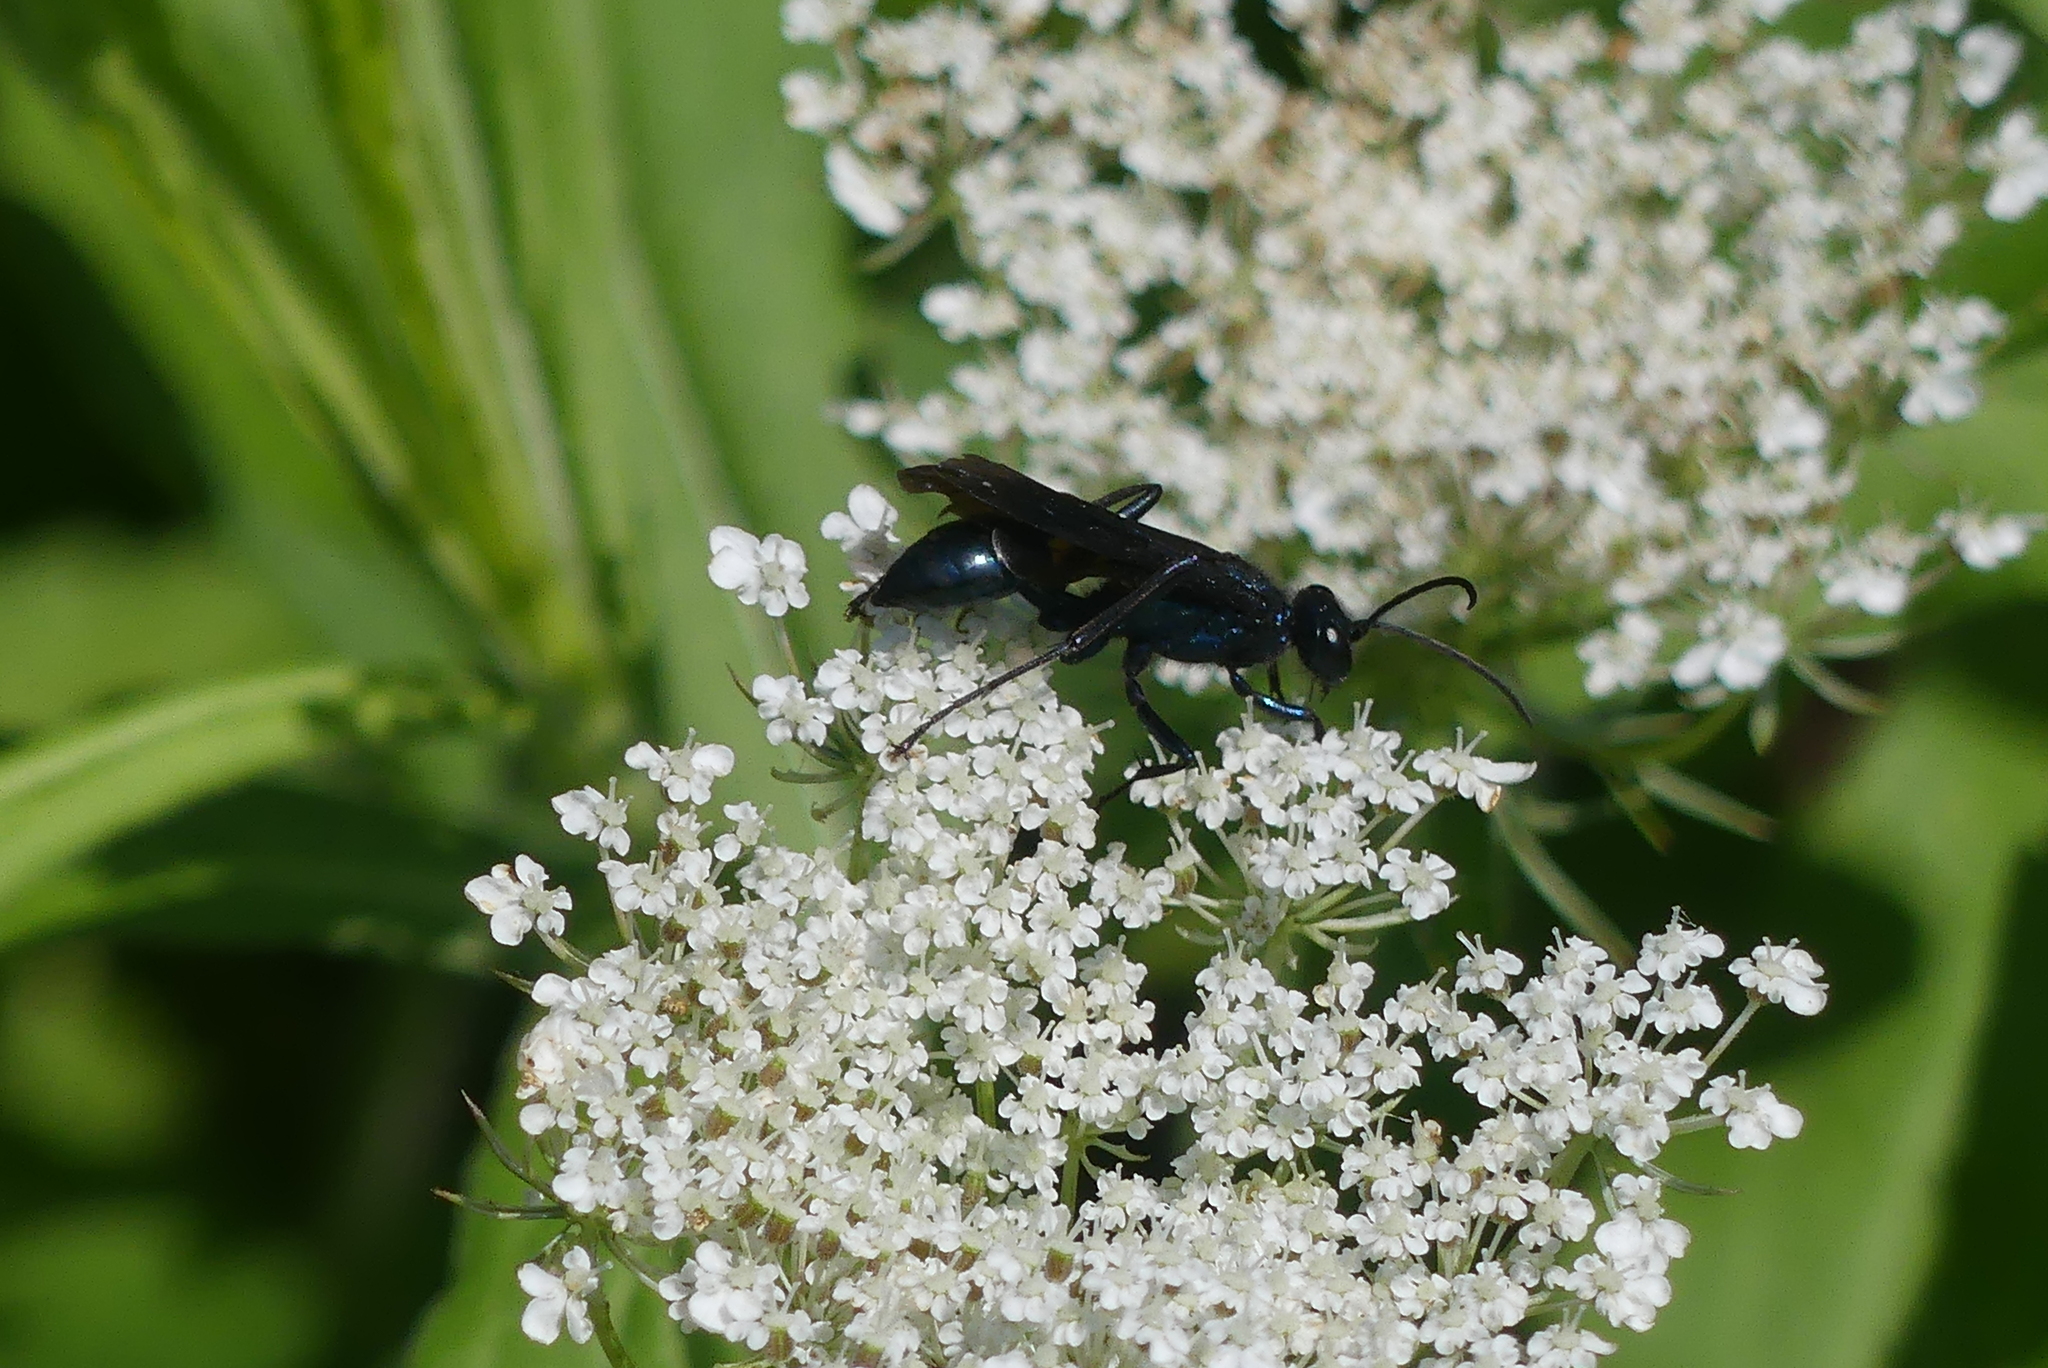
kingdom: Animalia
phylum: Arthropoda
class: Insecta
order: Hymenoptera
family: Sphecidae
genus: Chalybion
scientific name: Chalybion californicum
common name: Mud dauber
